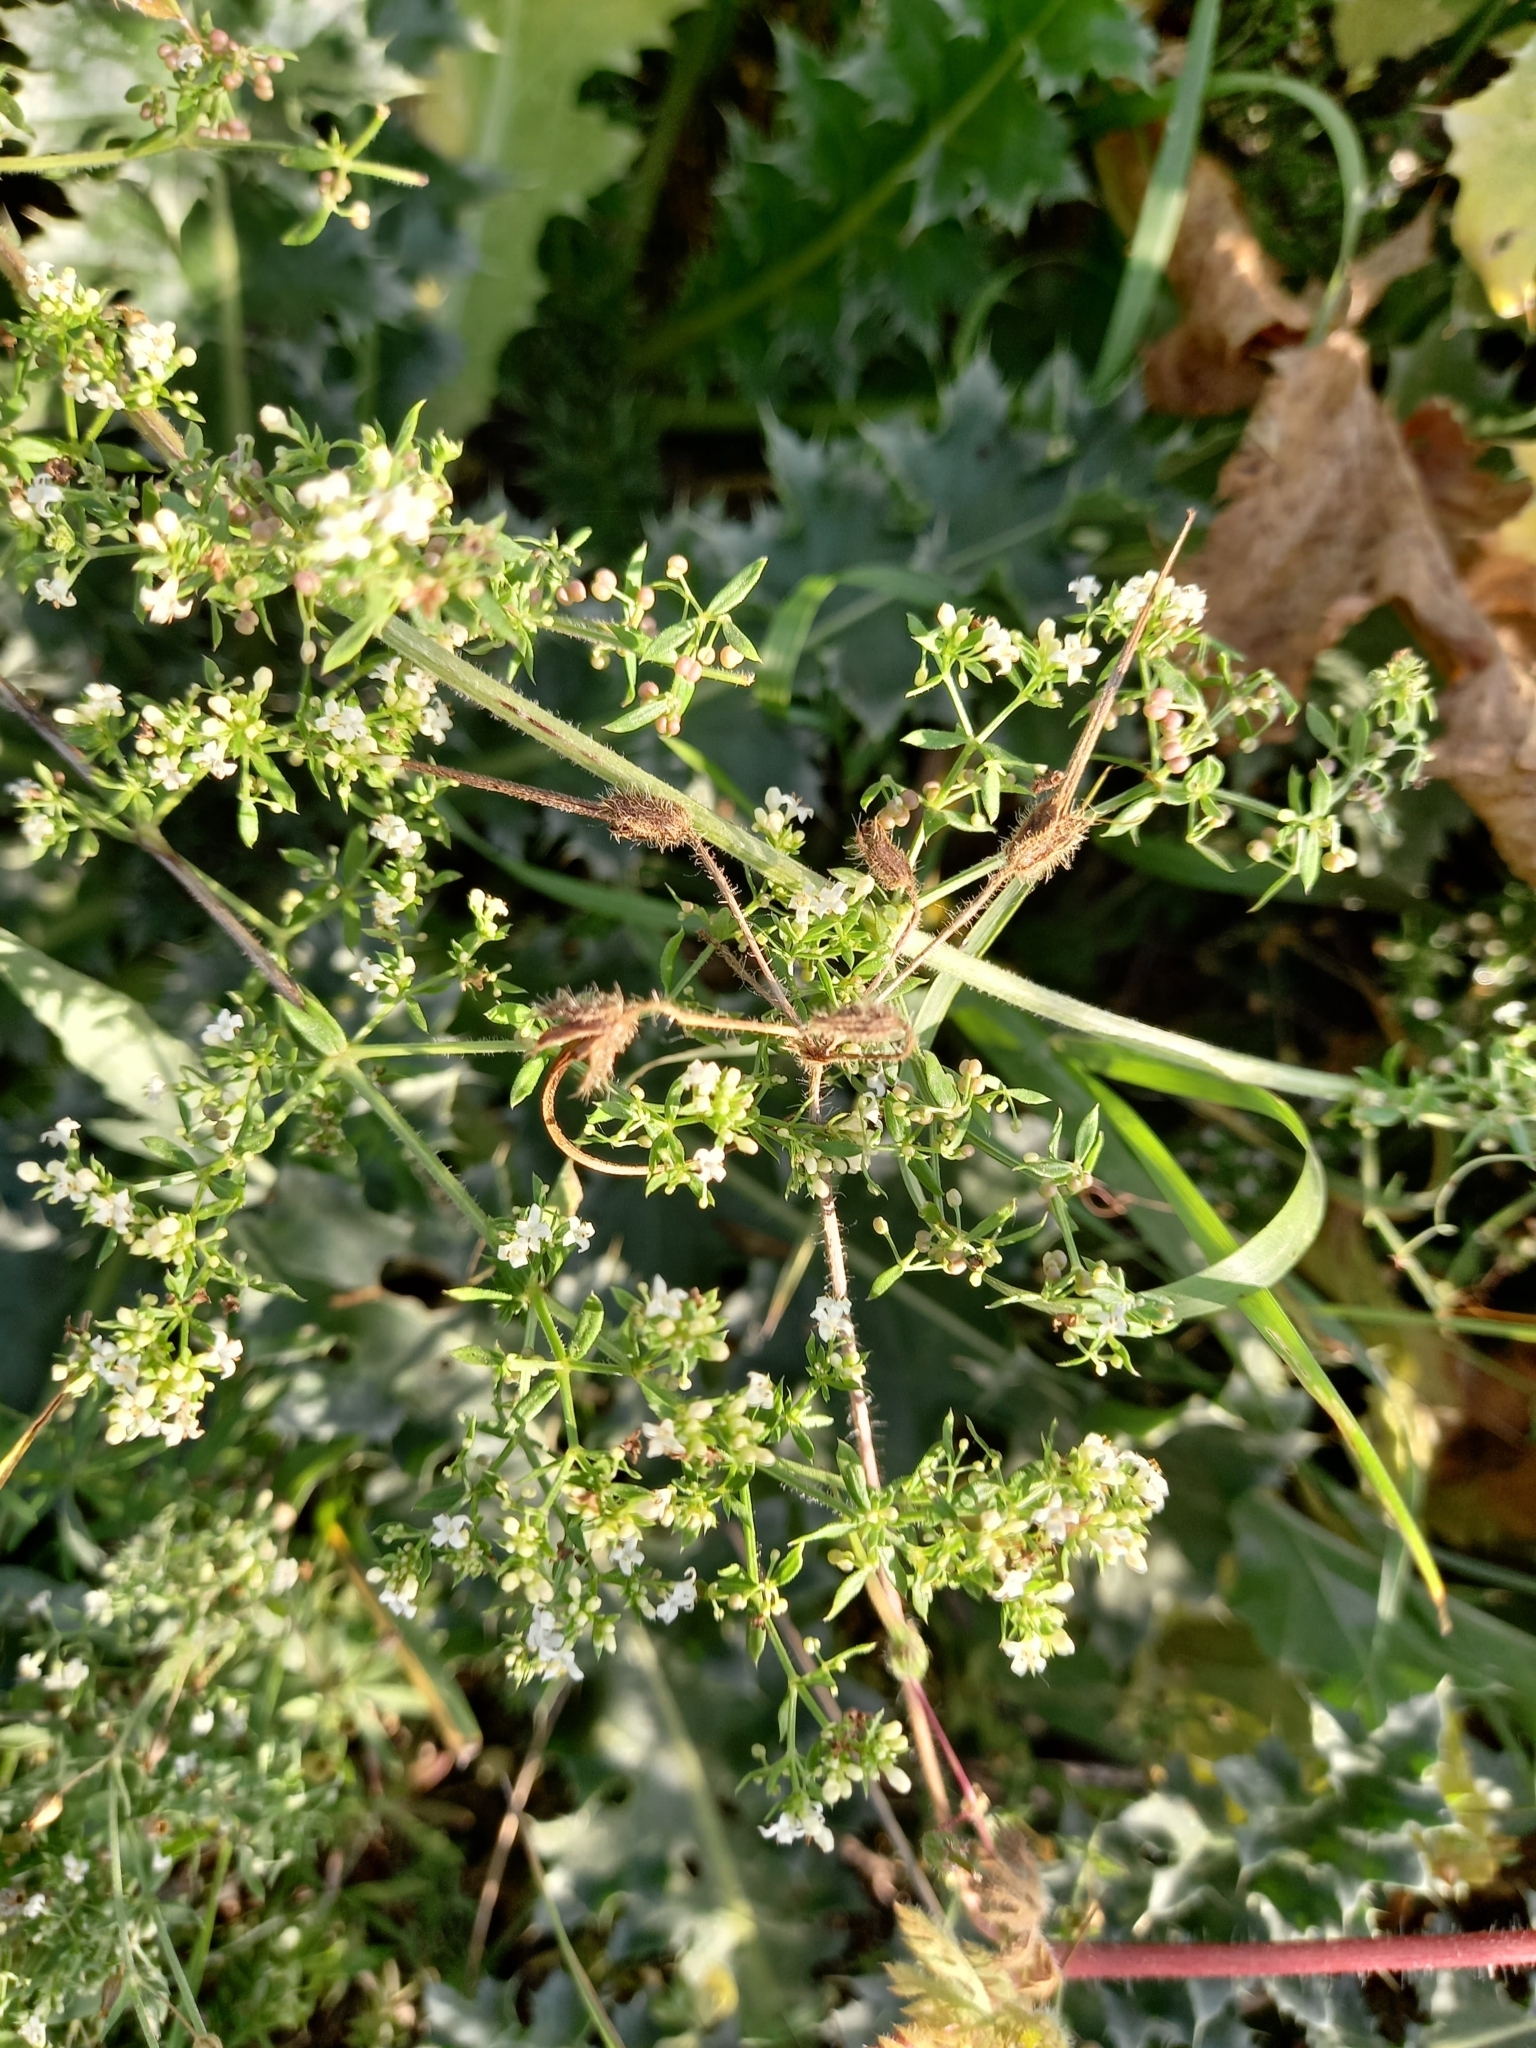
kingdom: Plantae
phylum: Tracheophyta
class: Magnoliopsida
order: Gentianales
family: Rubiaceae
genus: Galium
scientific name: Galium humifusum
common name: Spreading bedstraw
